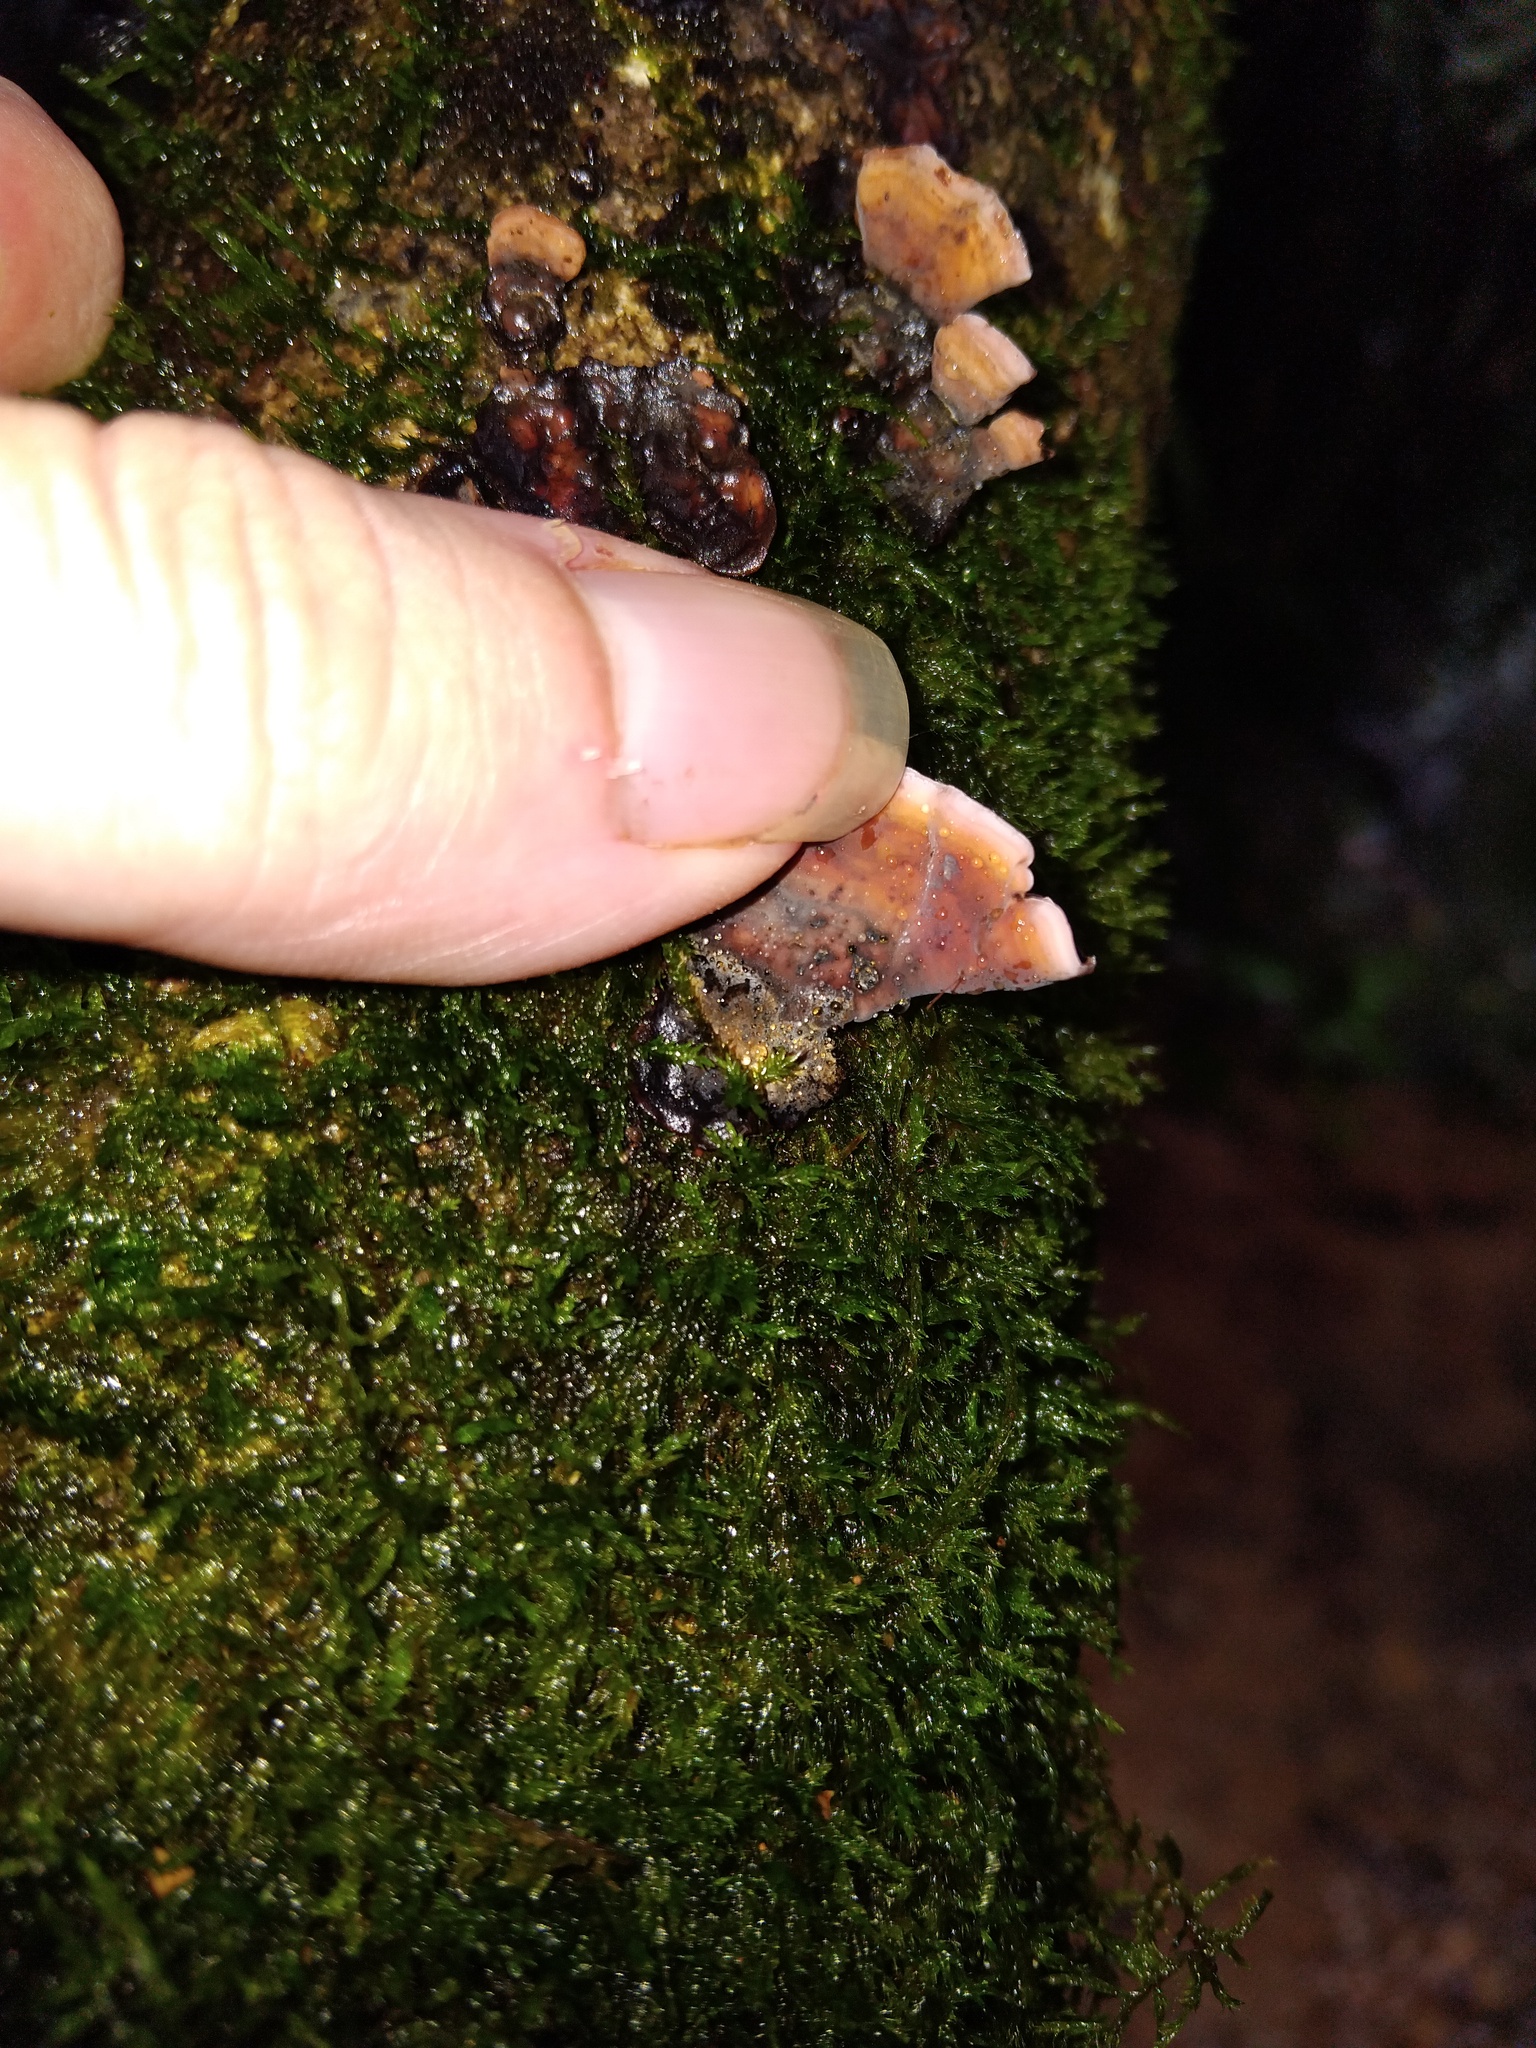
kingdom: Fungi
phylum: Basidiomycota
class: Agaricomycetes
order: Russulales
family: Stereaceae
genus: Xylobolus
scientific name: Xylobolus illudens
